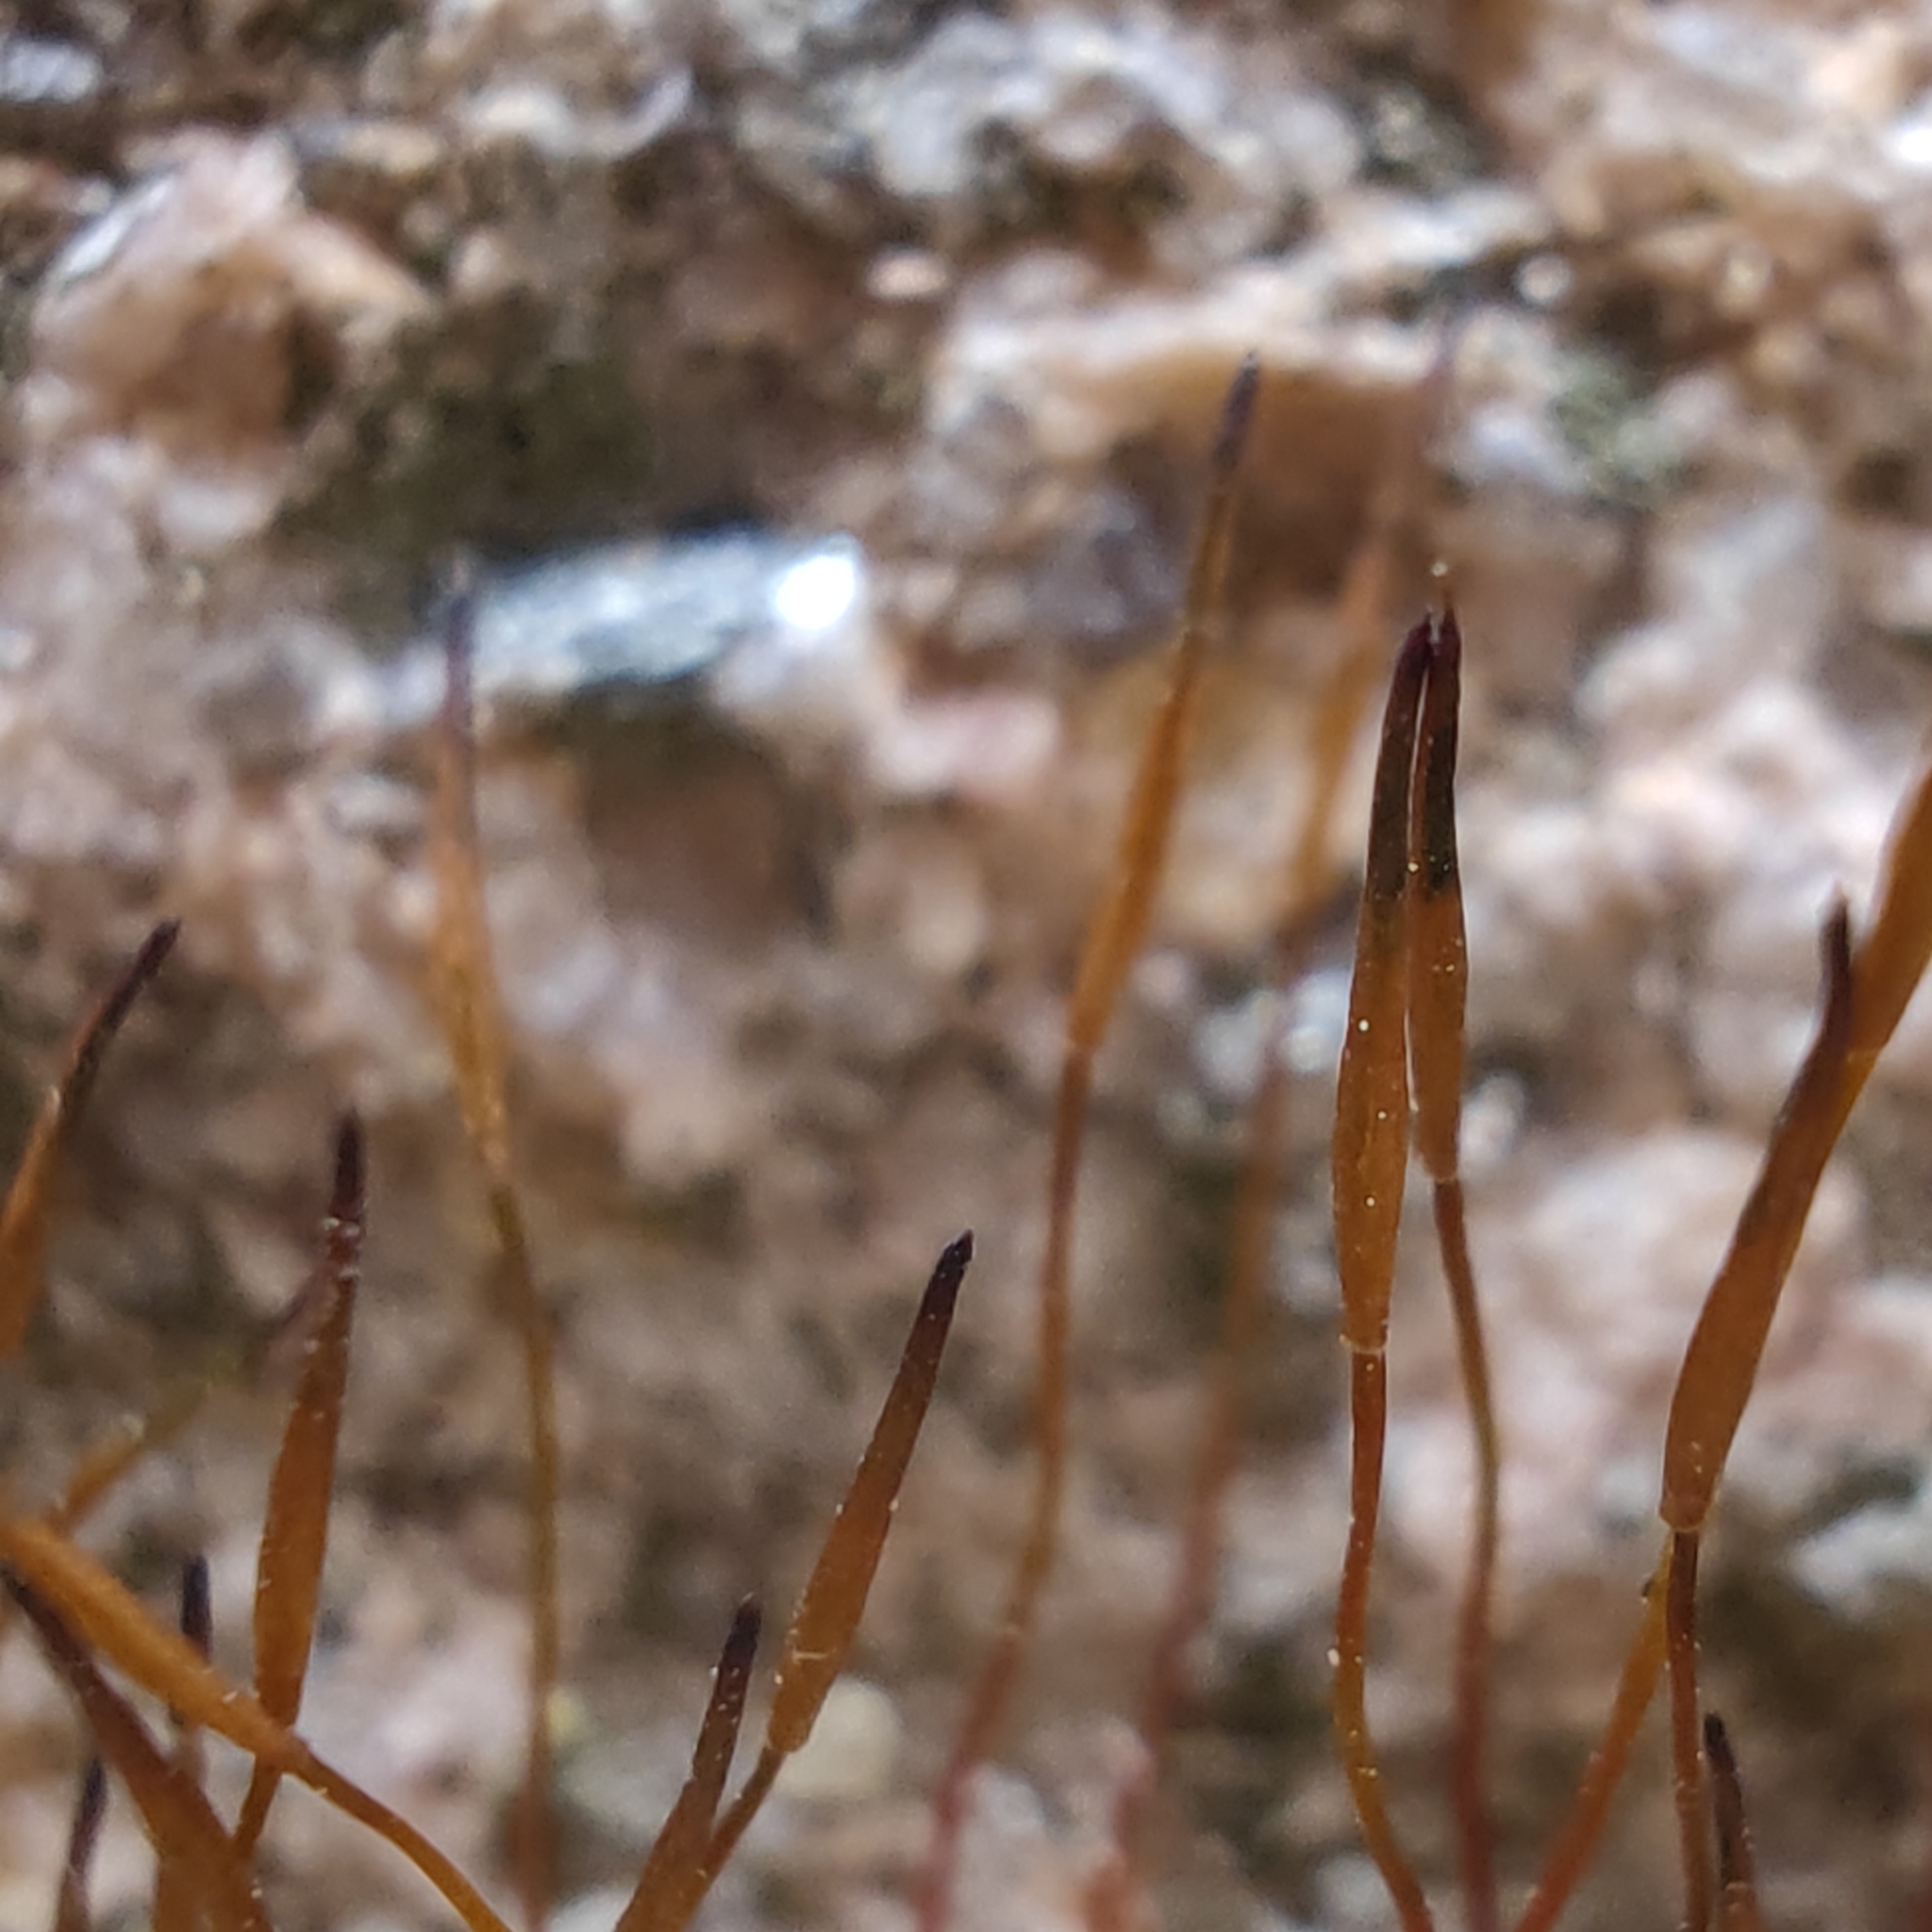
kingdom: Plantae
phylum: Bryophyta
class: Bryopsida
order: Pottiales
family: Pottiaceae
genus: Tortula
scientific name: Tortula muralis
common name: Wall screw-moss
